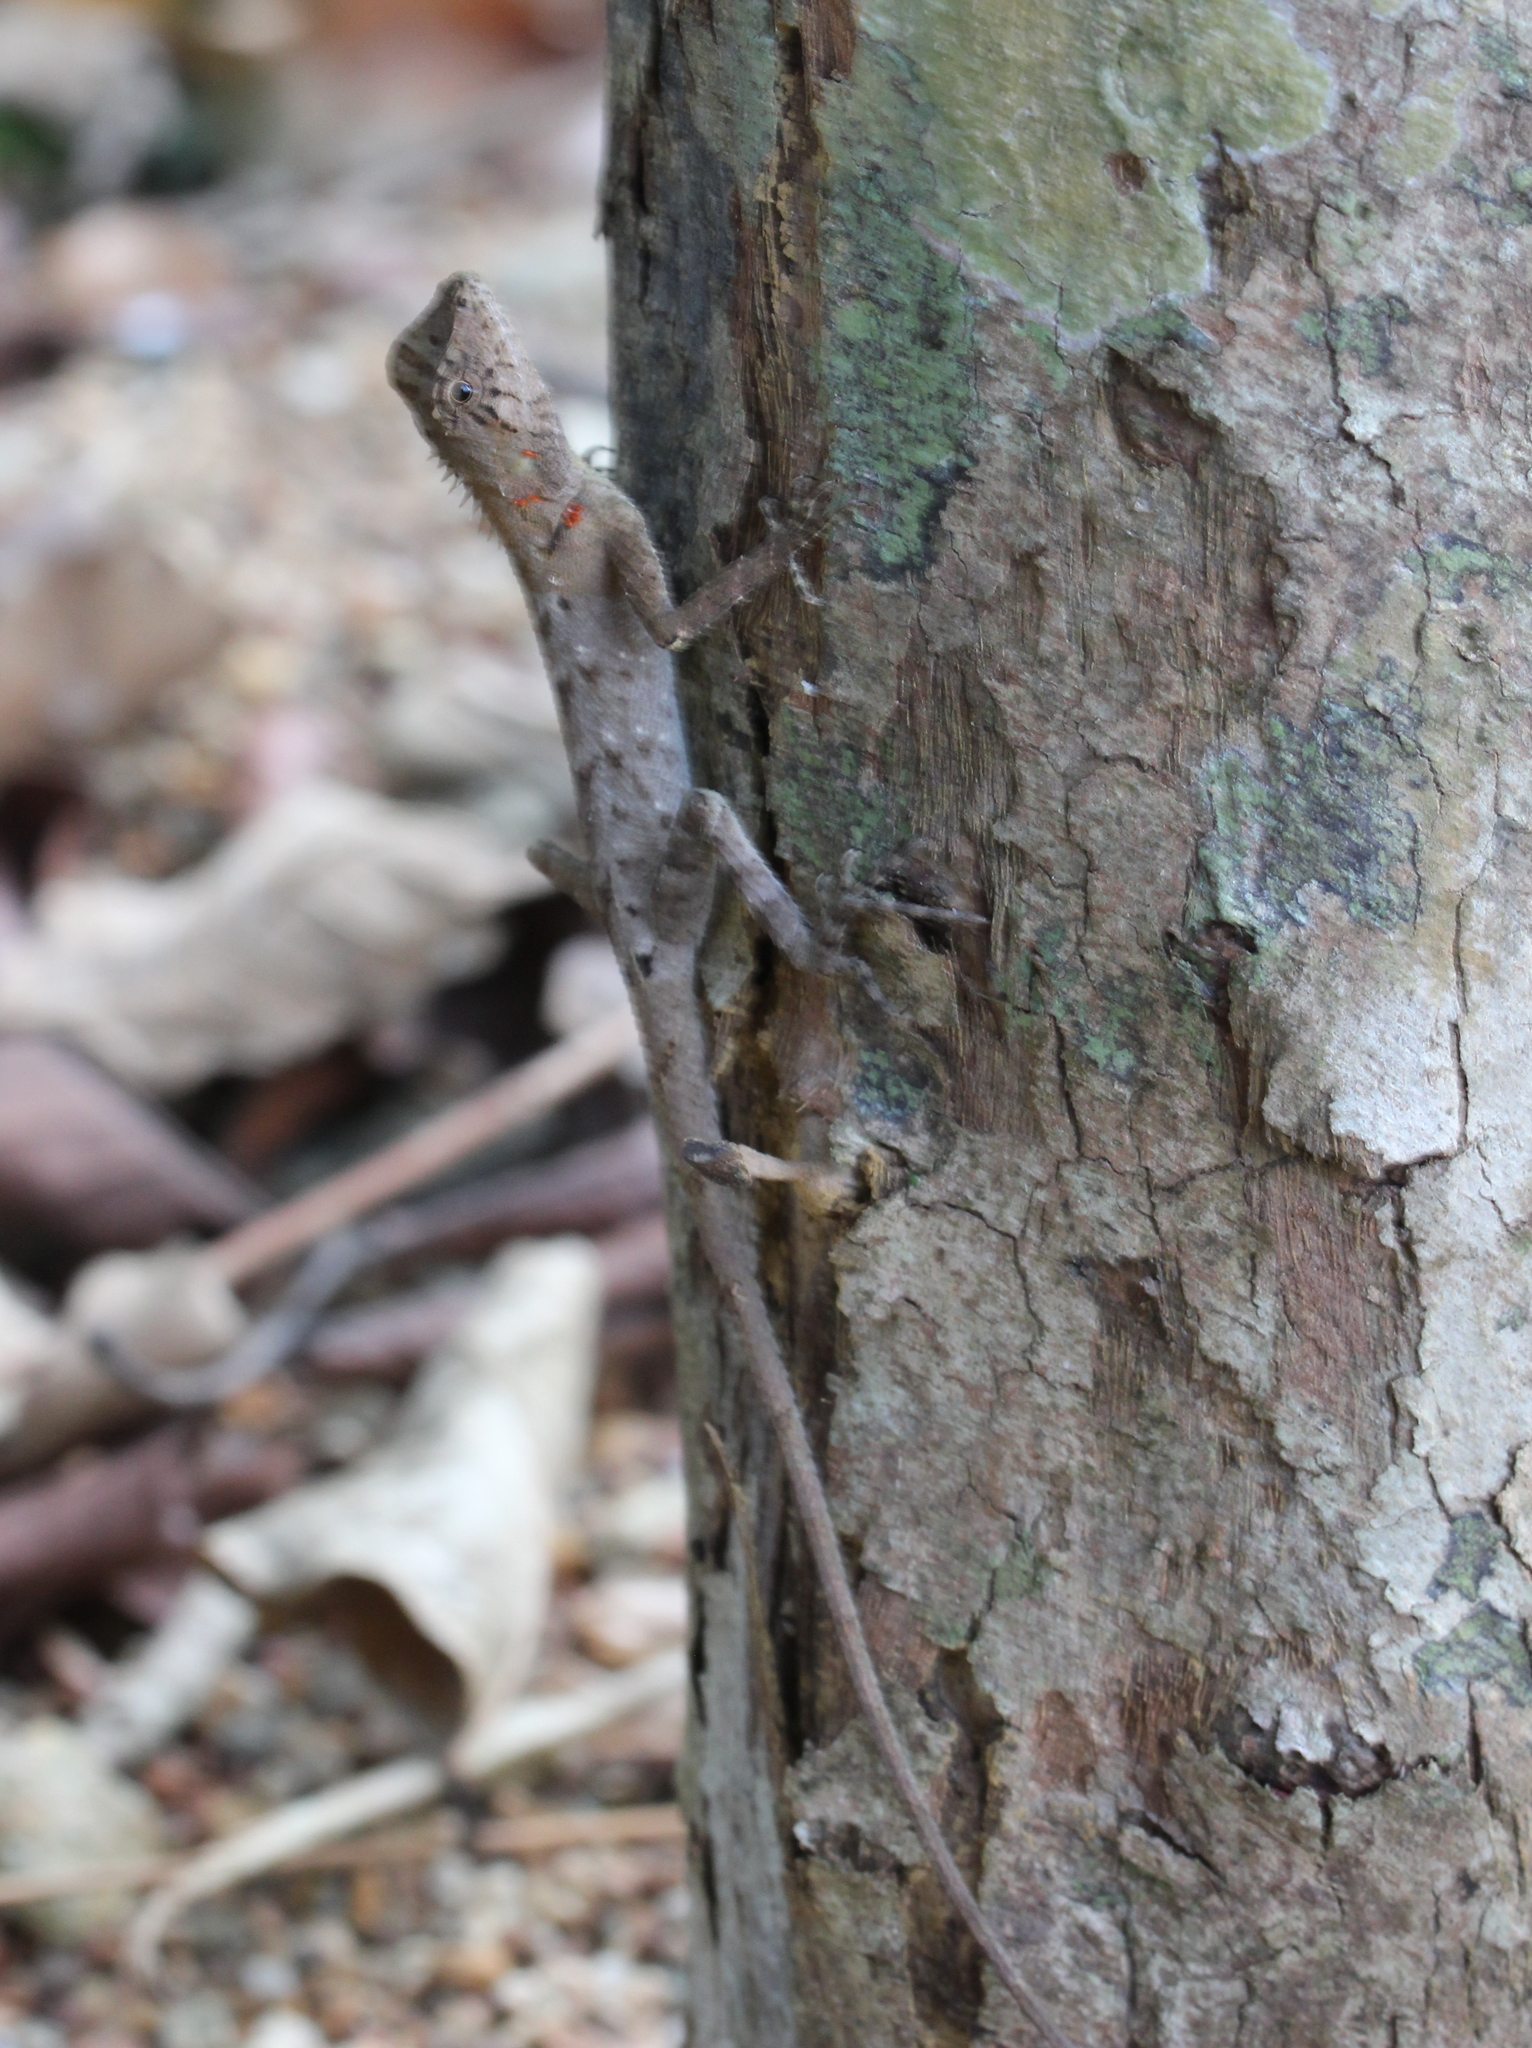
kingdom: Animalia
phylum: Chordata
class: Squamata
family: Agamidae
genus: Monilesaurus
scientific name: Monilesaurus rouxii
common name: Roux's forest lizard
